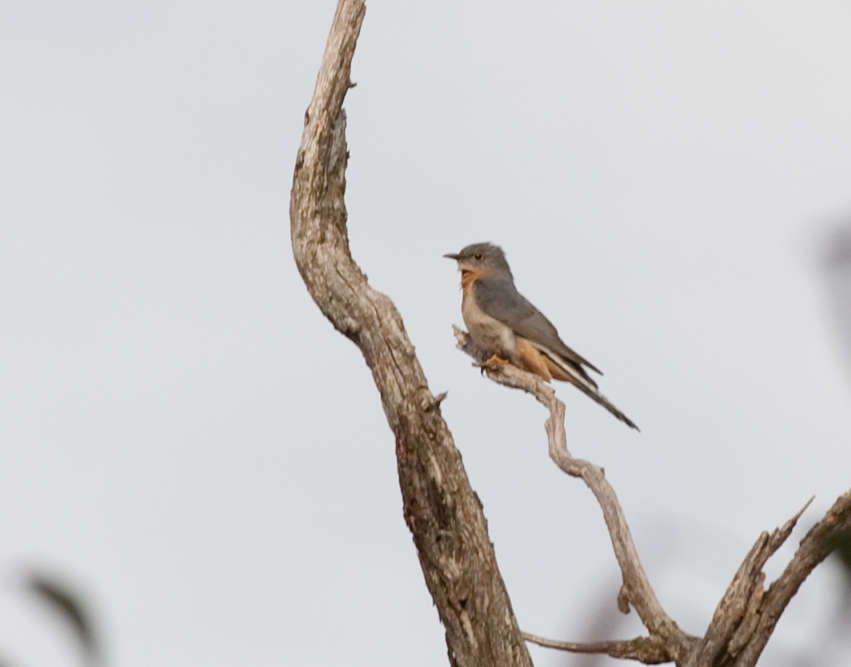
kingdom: Animalia
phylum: Chordata
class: Aves
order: Cuculiformes
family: Cuculidae
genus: Cacomantis
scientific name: Cacomantis flabelliformis
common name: Fan-tailed cuckoo
